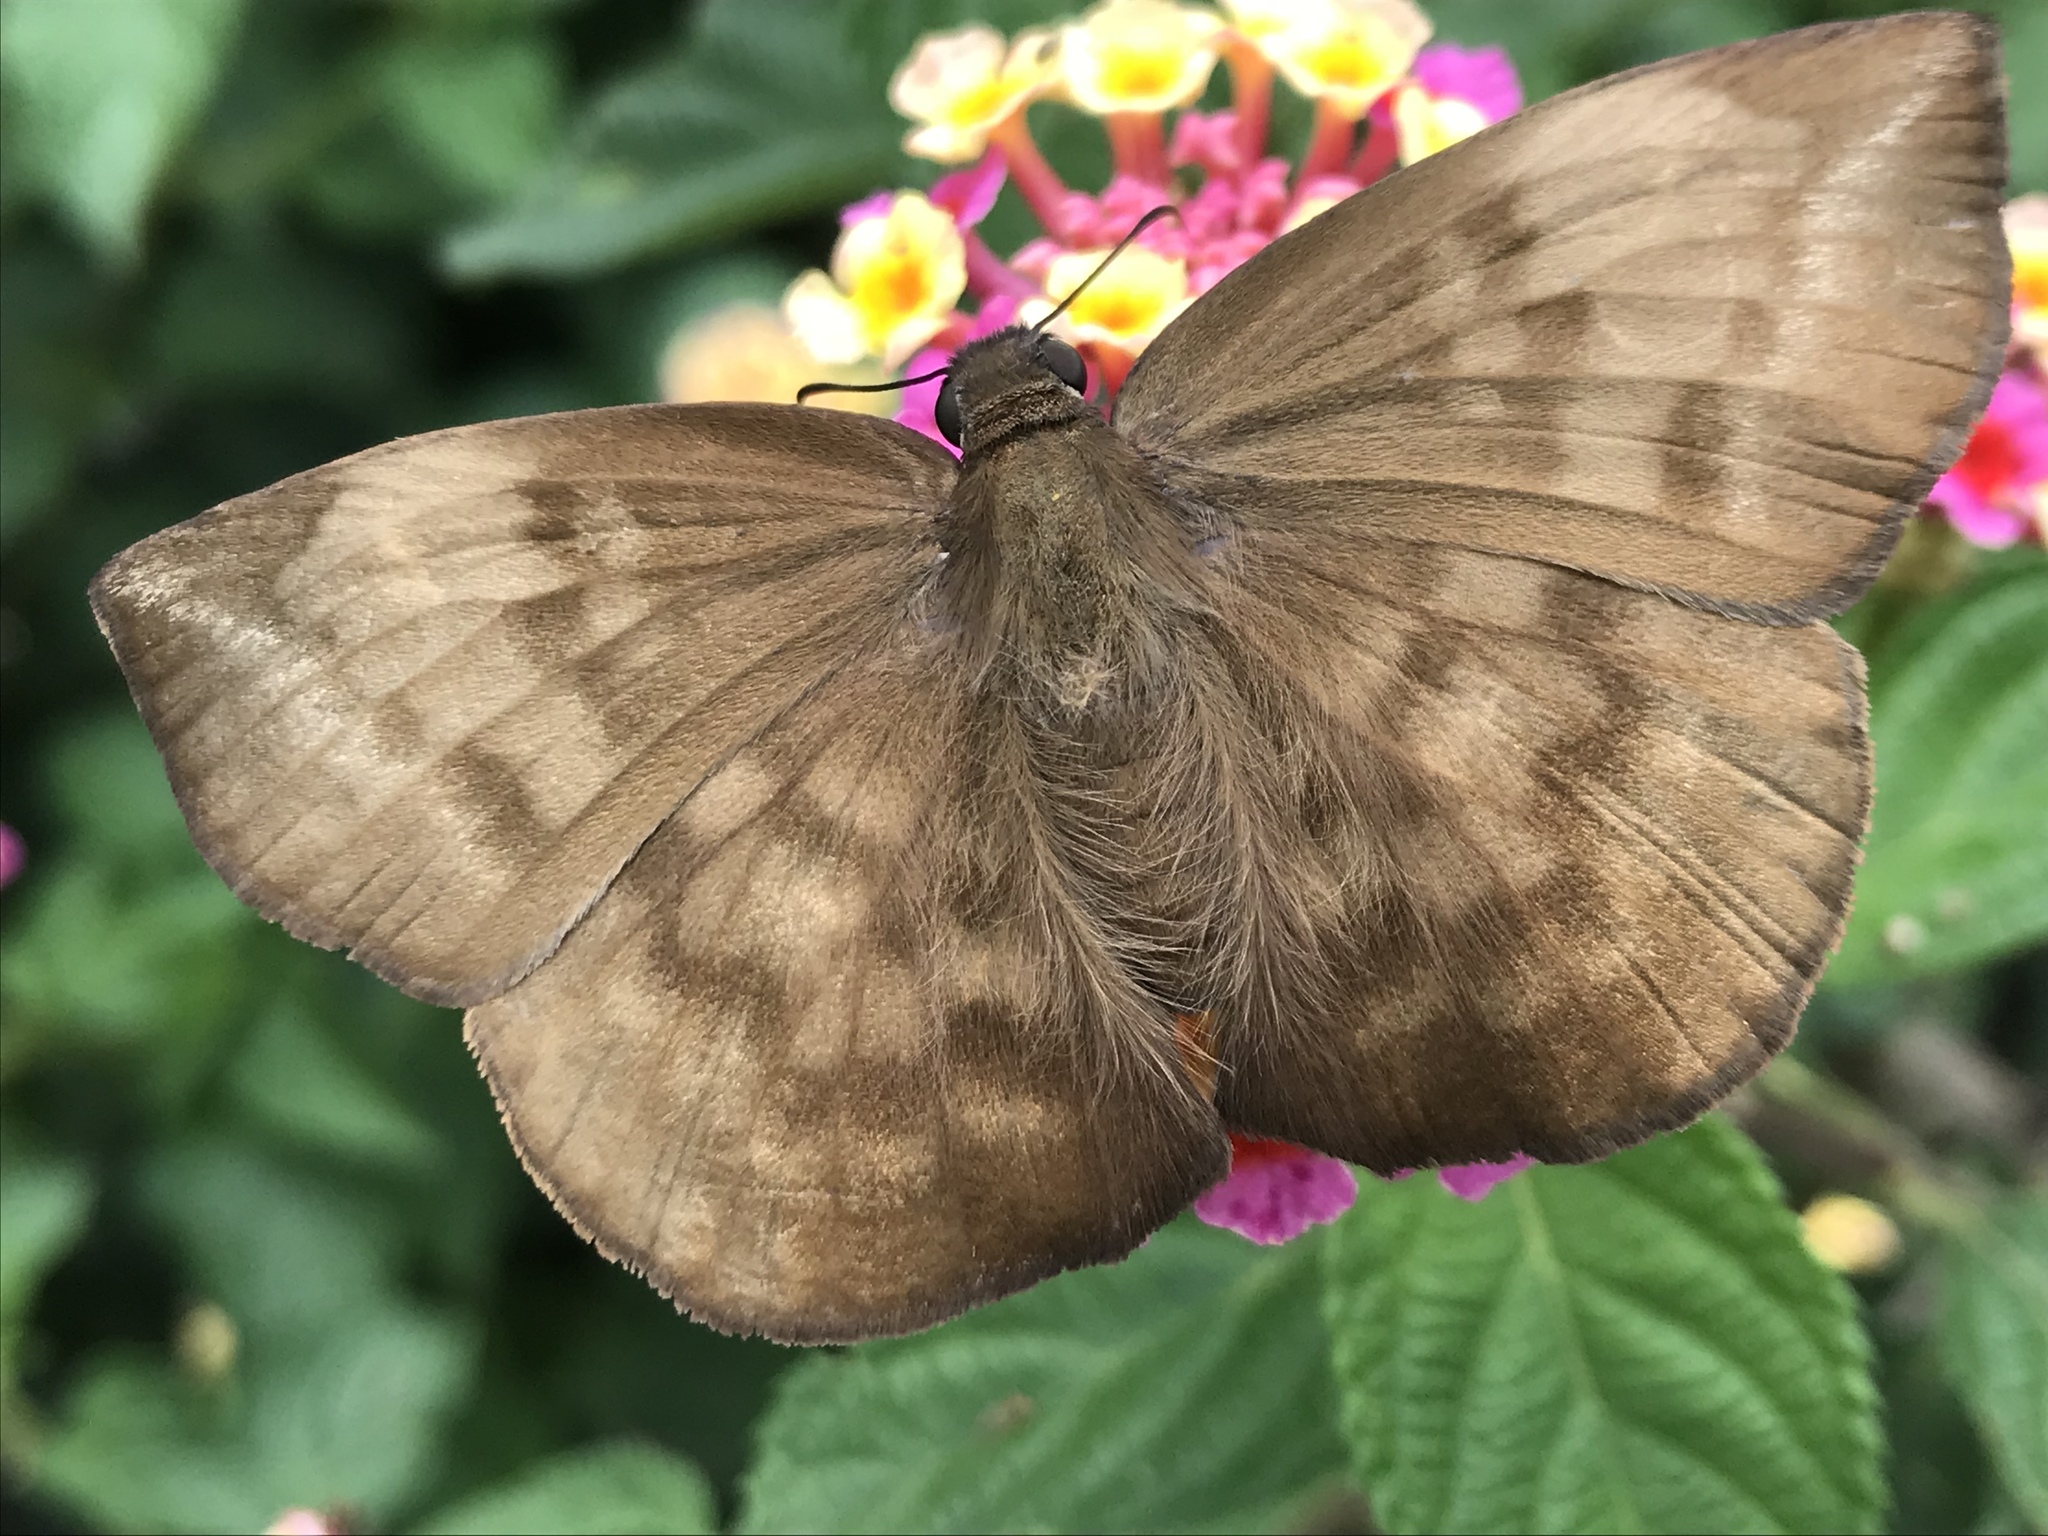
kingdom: Animalia
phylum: Arthropoda
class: Insecta
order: Lepidoptera
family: Hesperiidae
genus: Achlyodes
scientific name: Achlyodes pallida
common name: Pale sicklewing
